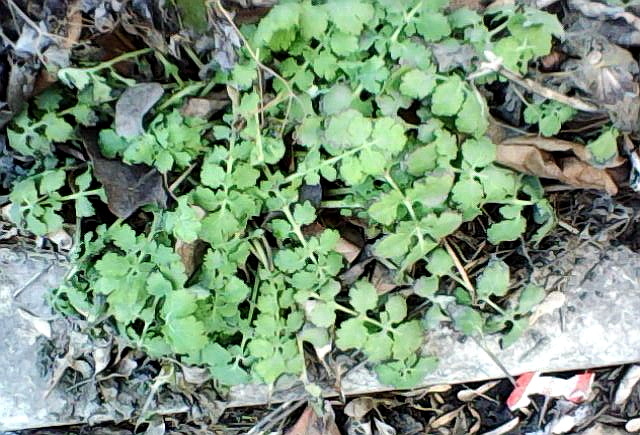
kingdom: Plantae
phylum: Tracheophyta
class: Magnoliopsida
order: Ranunculales
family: Papaveraceae
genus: Chelidonium
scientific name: Chelidonium majus
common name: Greater celandine
